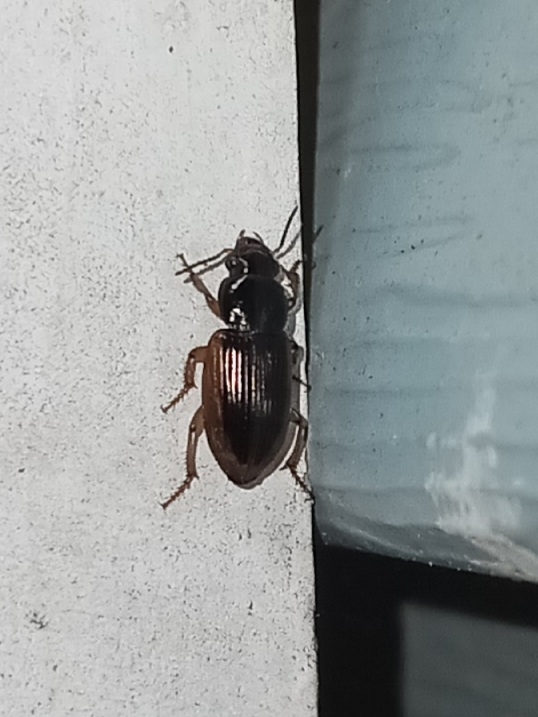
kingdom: Animalia
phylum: Arthropoda
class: Insecta
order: Coleoptera
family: Carabidae
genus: Stenolophus
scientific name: Stenolophus infuscatus
